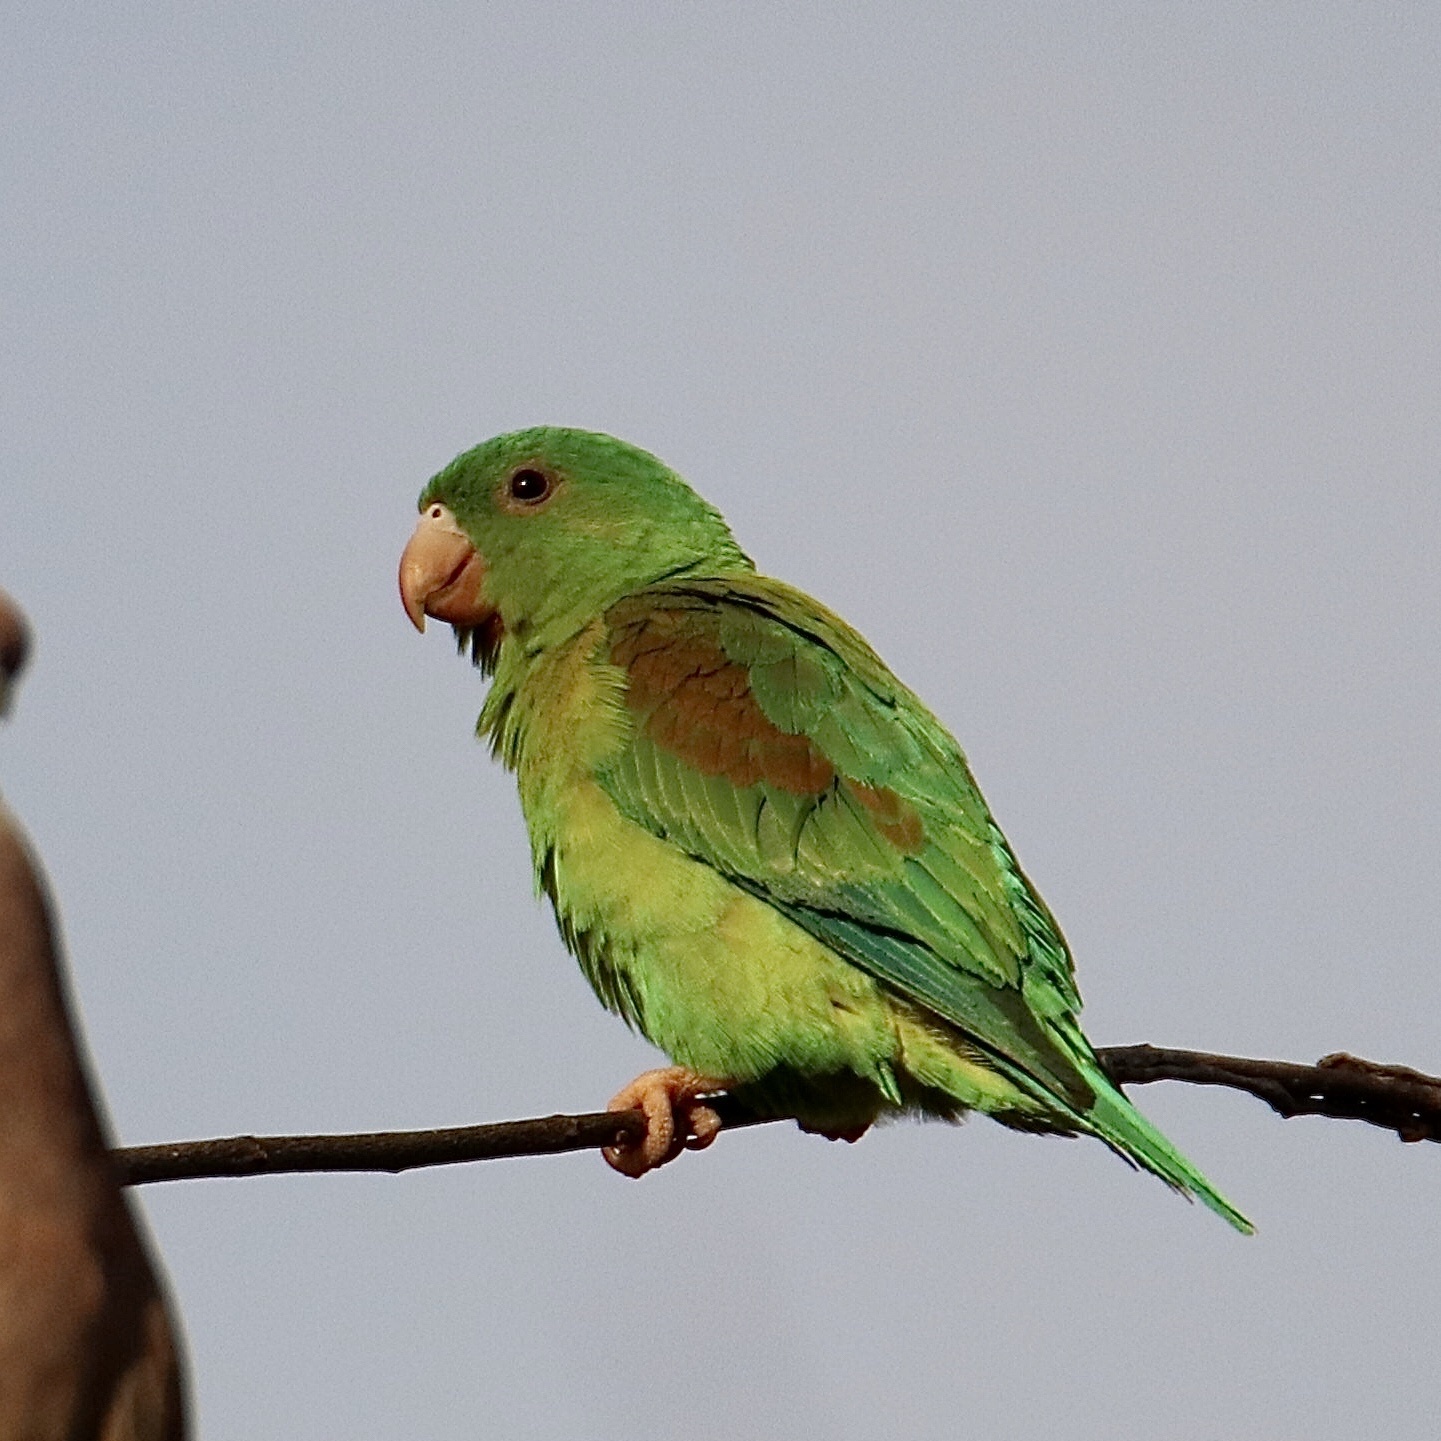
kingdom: Animalia
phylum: Chordata
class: Aves
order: Psittaciformes
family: Psittacidae
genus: Brotogeris
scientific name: Brotogeris jugularis
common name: Orange-chinned parakeet
